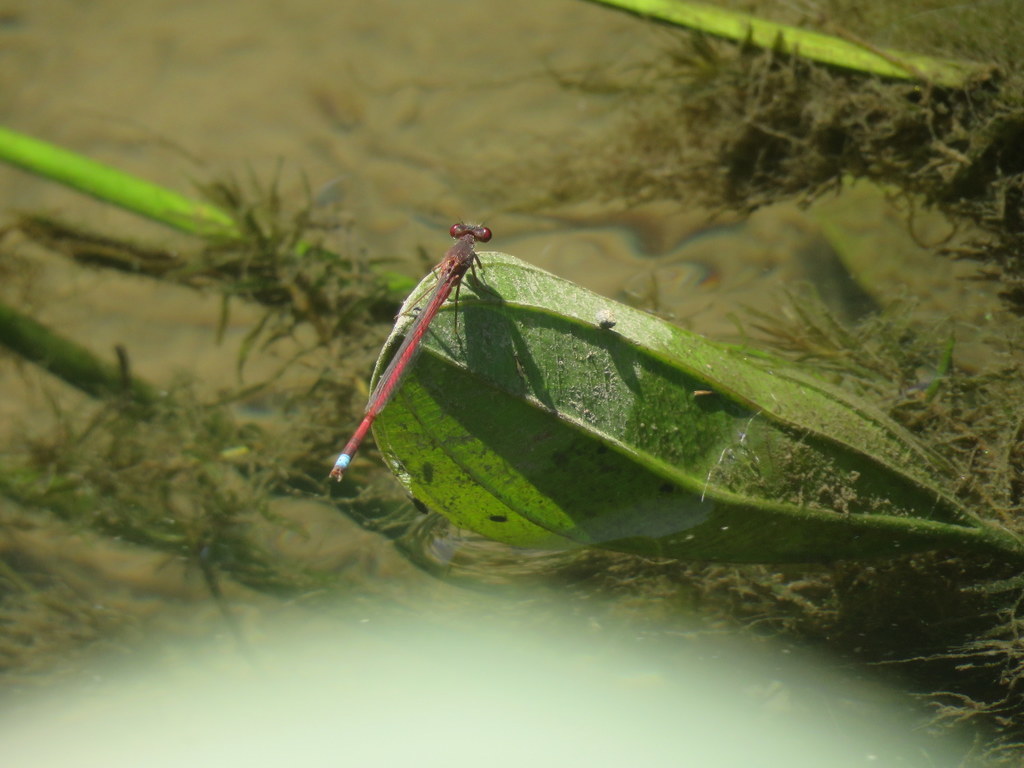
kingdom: Animalia
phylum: Arthropoda
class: Insecta
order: Odonata
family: Coenagrionidae
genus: Oxyagrion
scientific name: Oxyagrion rubidum
